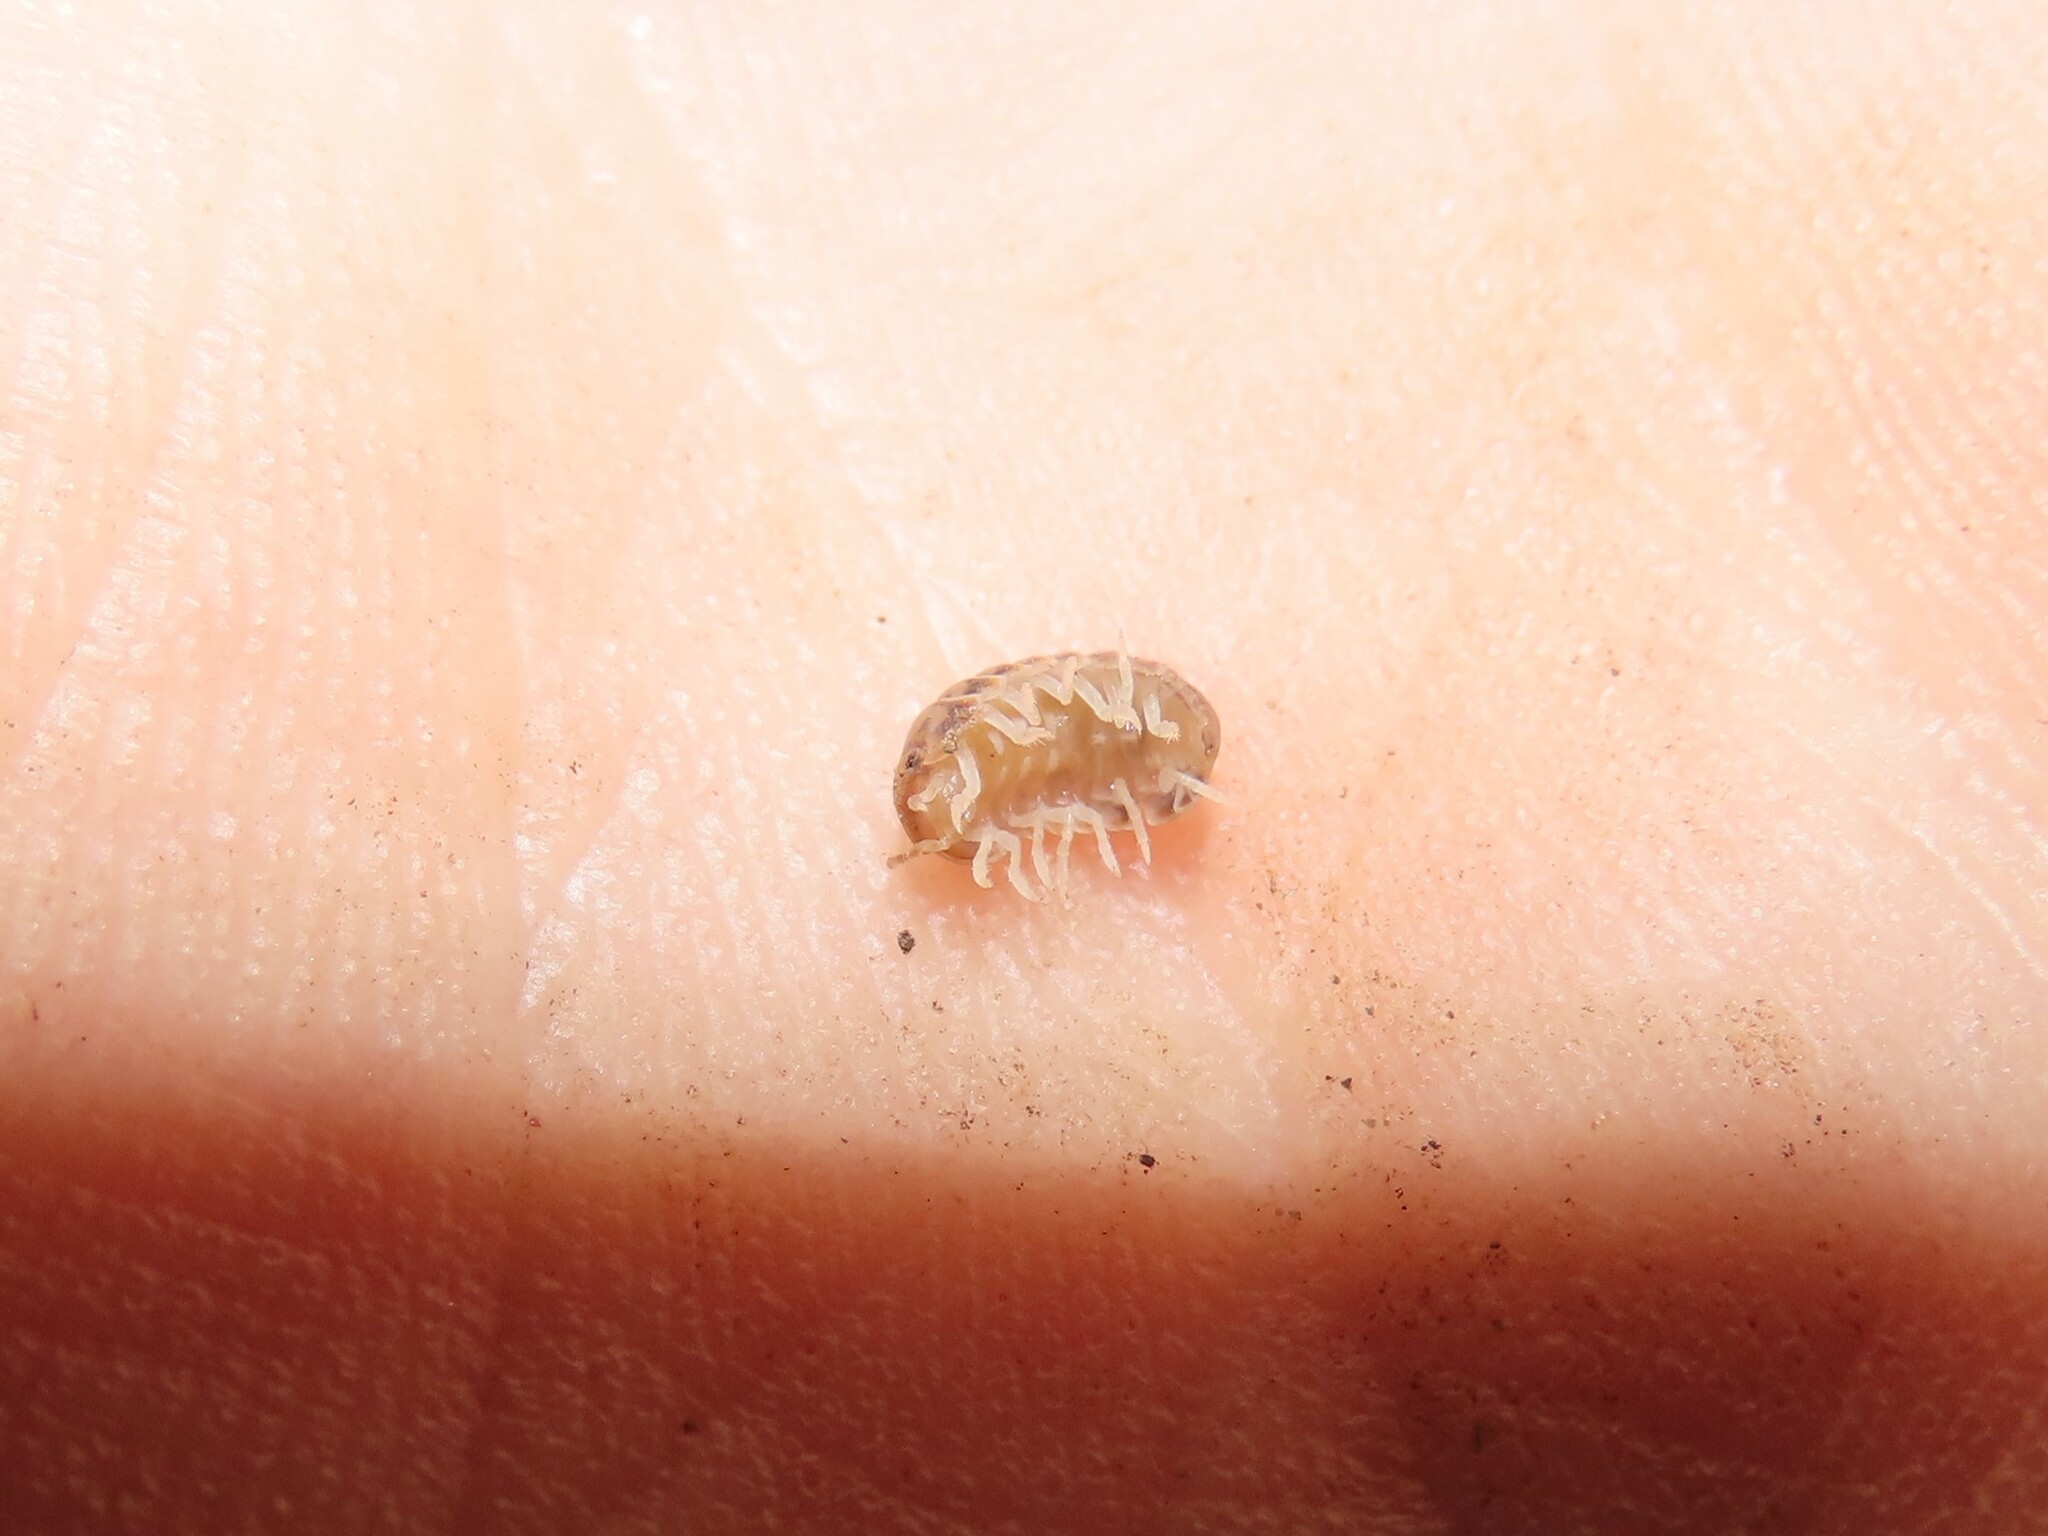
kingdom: Animalia
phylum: Arthropoda
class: Malacostraca
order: Isopoda
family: Armadillidae
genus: Venezillo
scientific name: Venezillo parvus
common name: Pillbug
